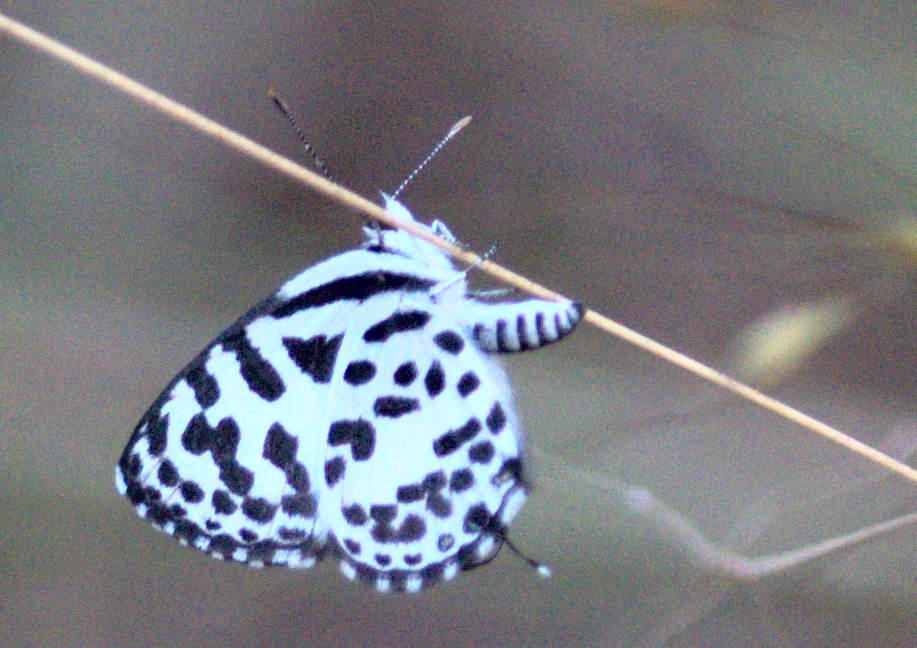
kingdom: Animalia
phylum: Arthropoda
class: Insecta
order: Lepidoptera
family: Lycaenidae
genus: Castalius
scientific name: Castalius rosimon
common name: Common pierrot
